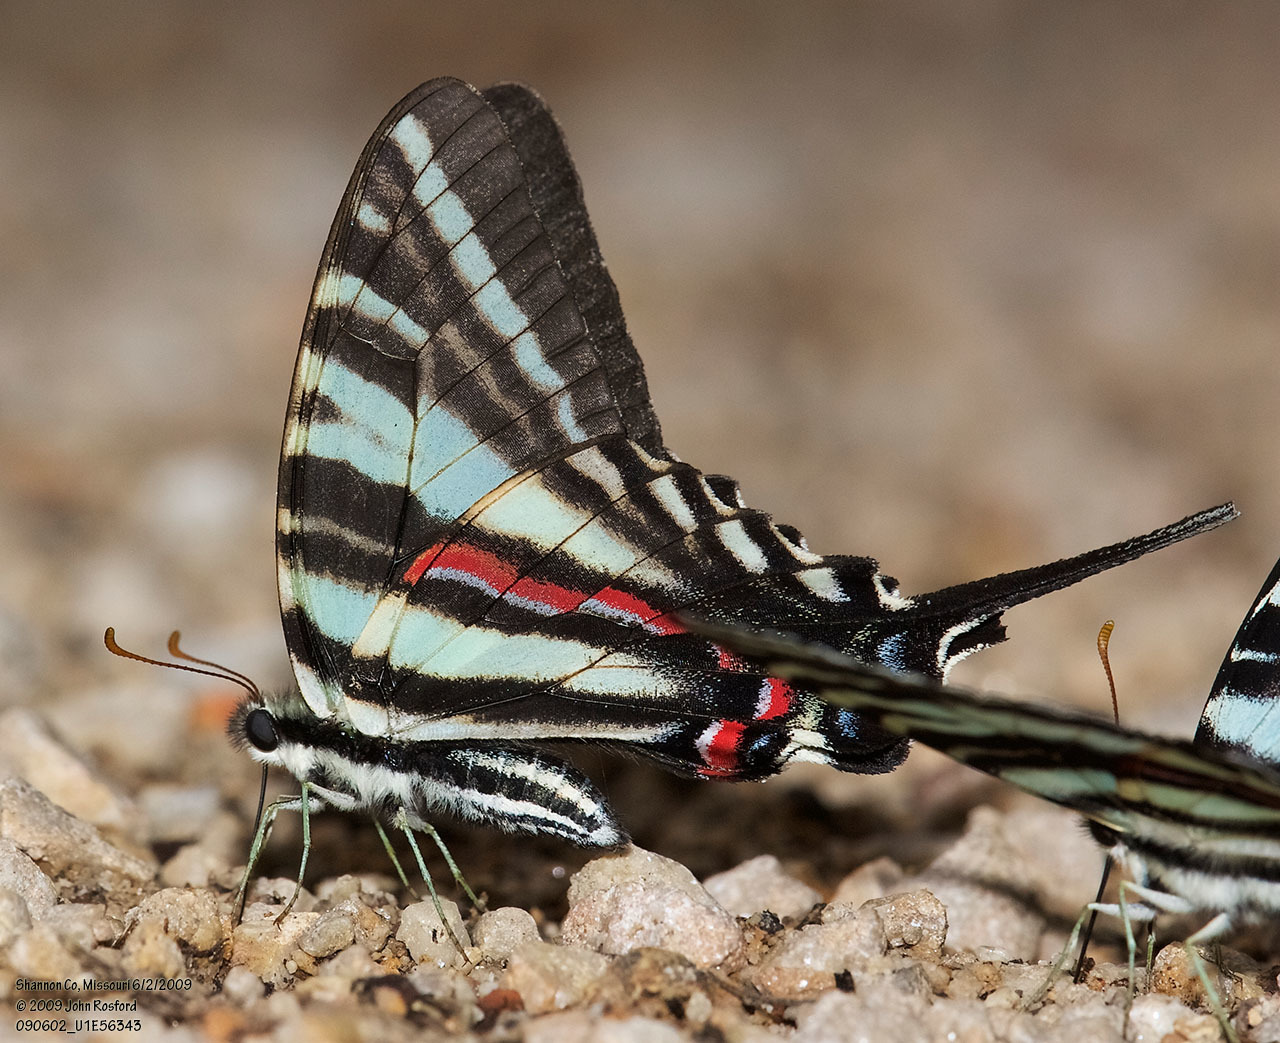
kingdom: Animalia
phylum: Arthropoda
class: Insecta
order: Lepidoptera
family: Papilionidae
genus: Protographium
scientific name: Protographium marcellus
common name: Zebra swallowtail
